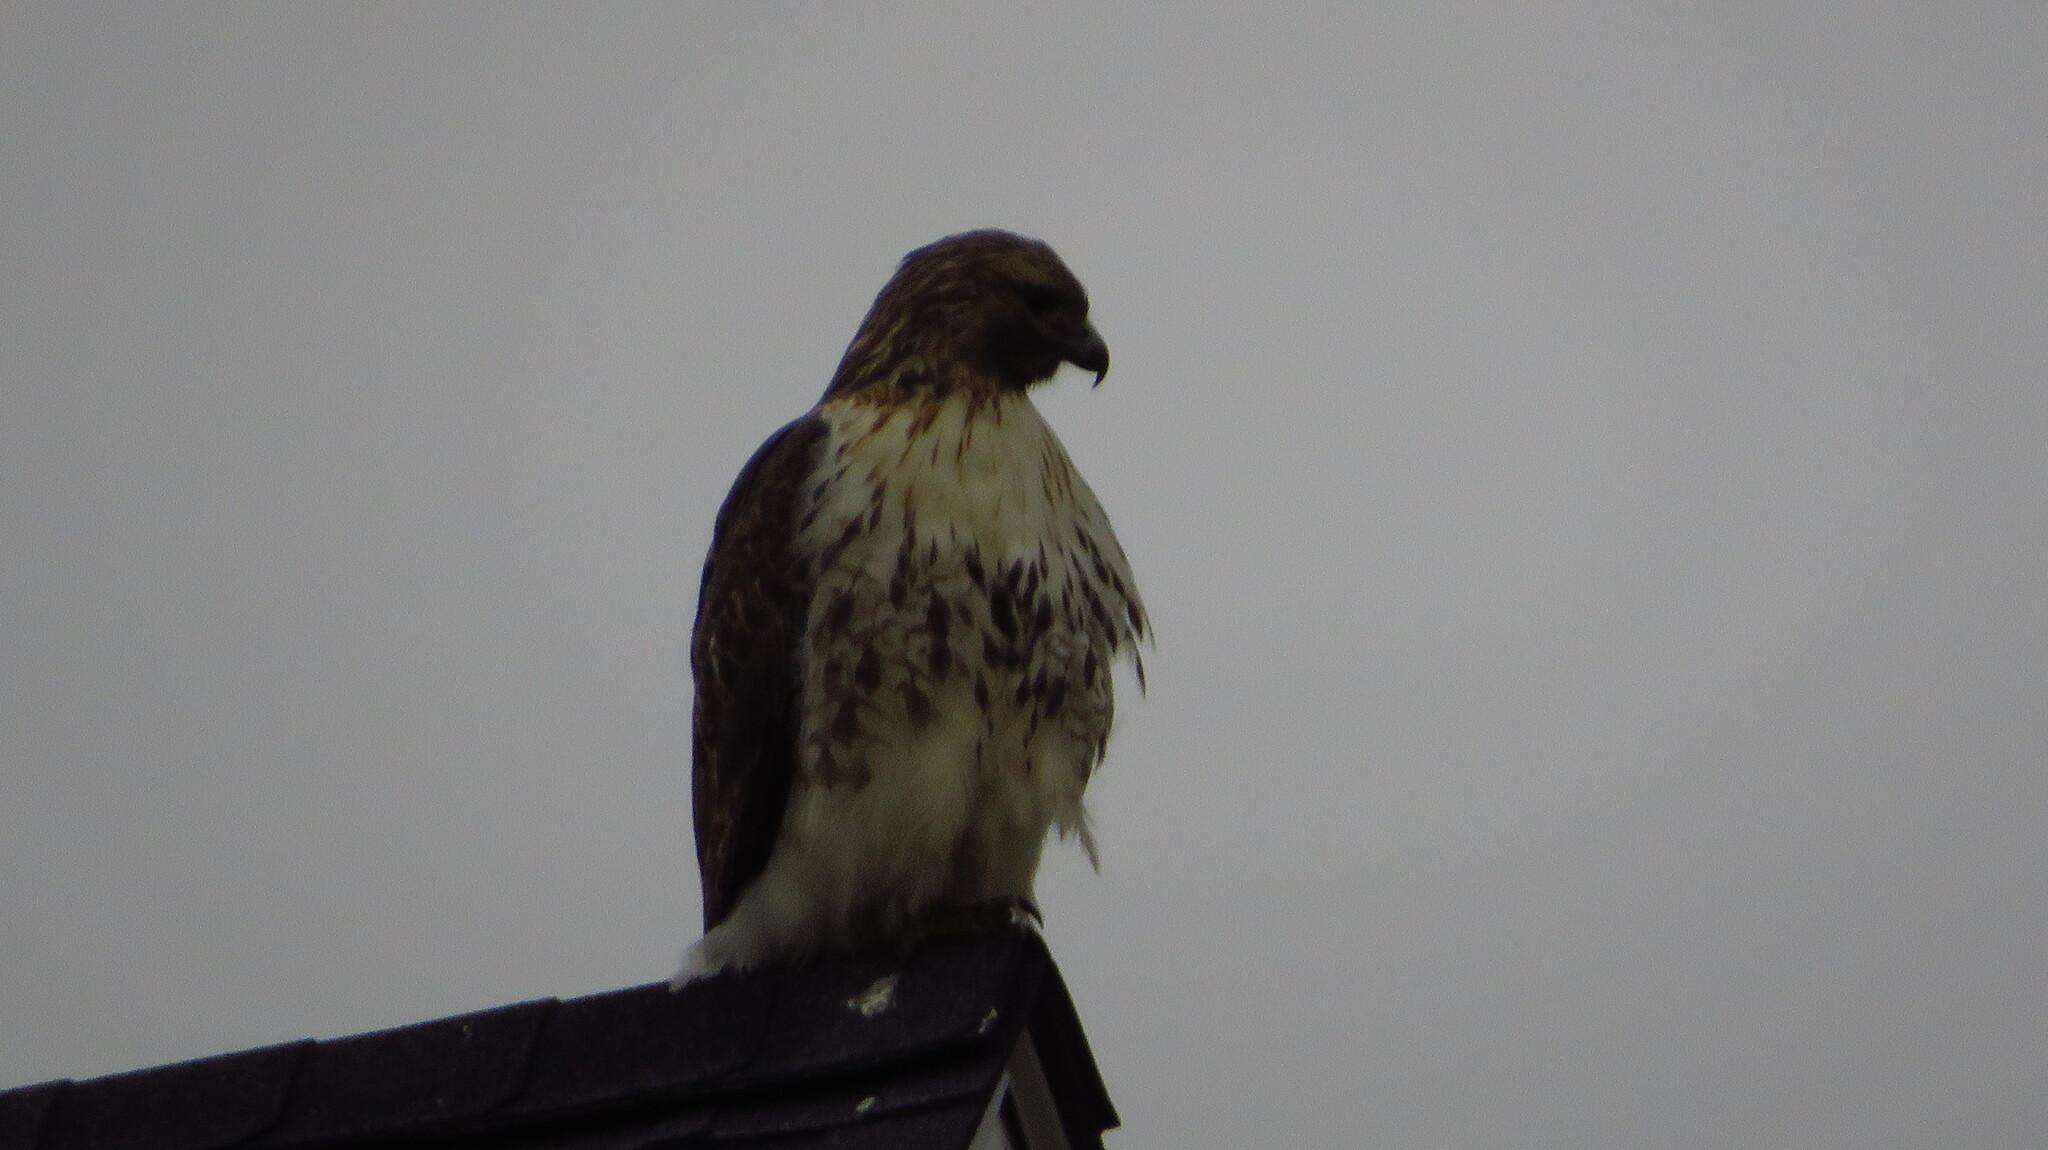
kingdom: Animalia
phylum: Chordata
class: Aves
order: Accipitriformes
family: Accipitridae
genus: Buteo
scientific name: Buteo jamaicensis
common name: Red-tailed hawk
